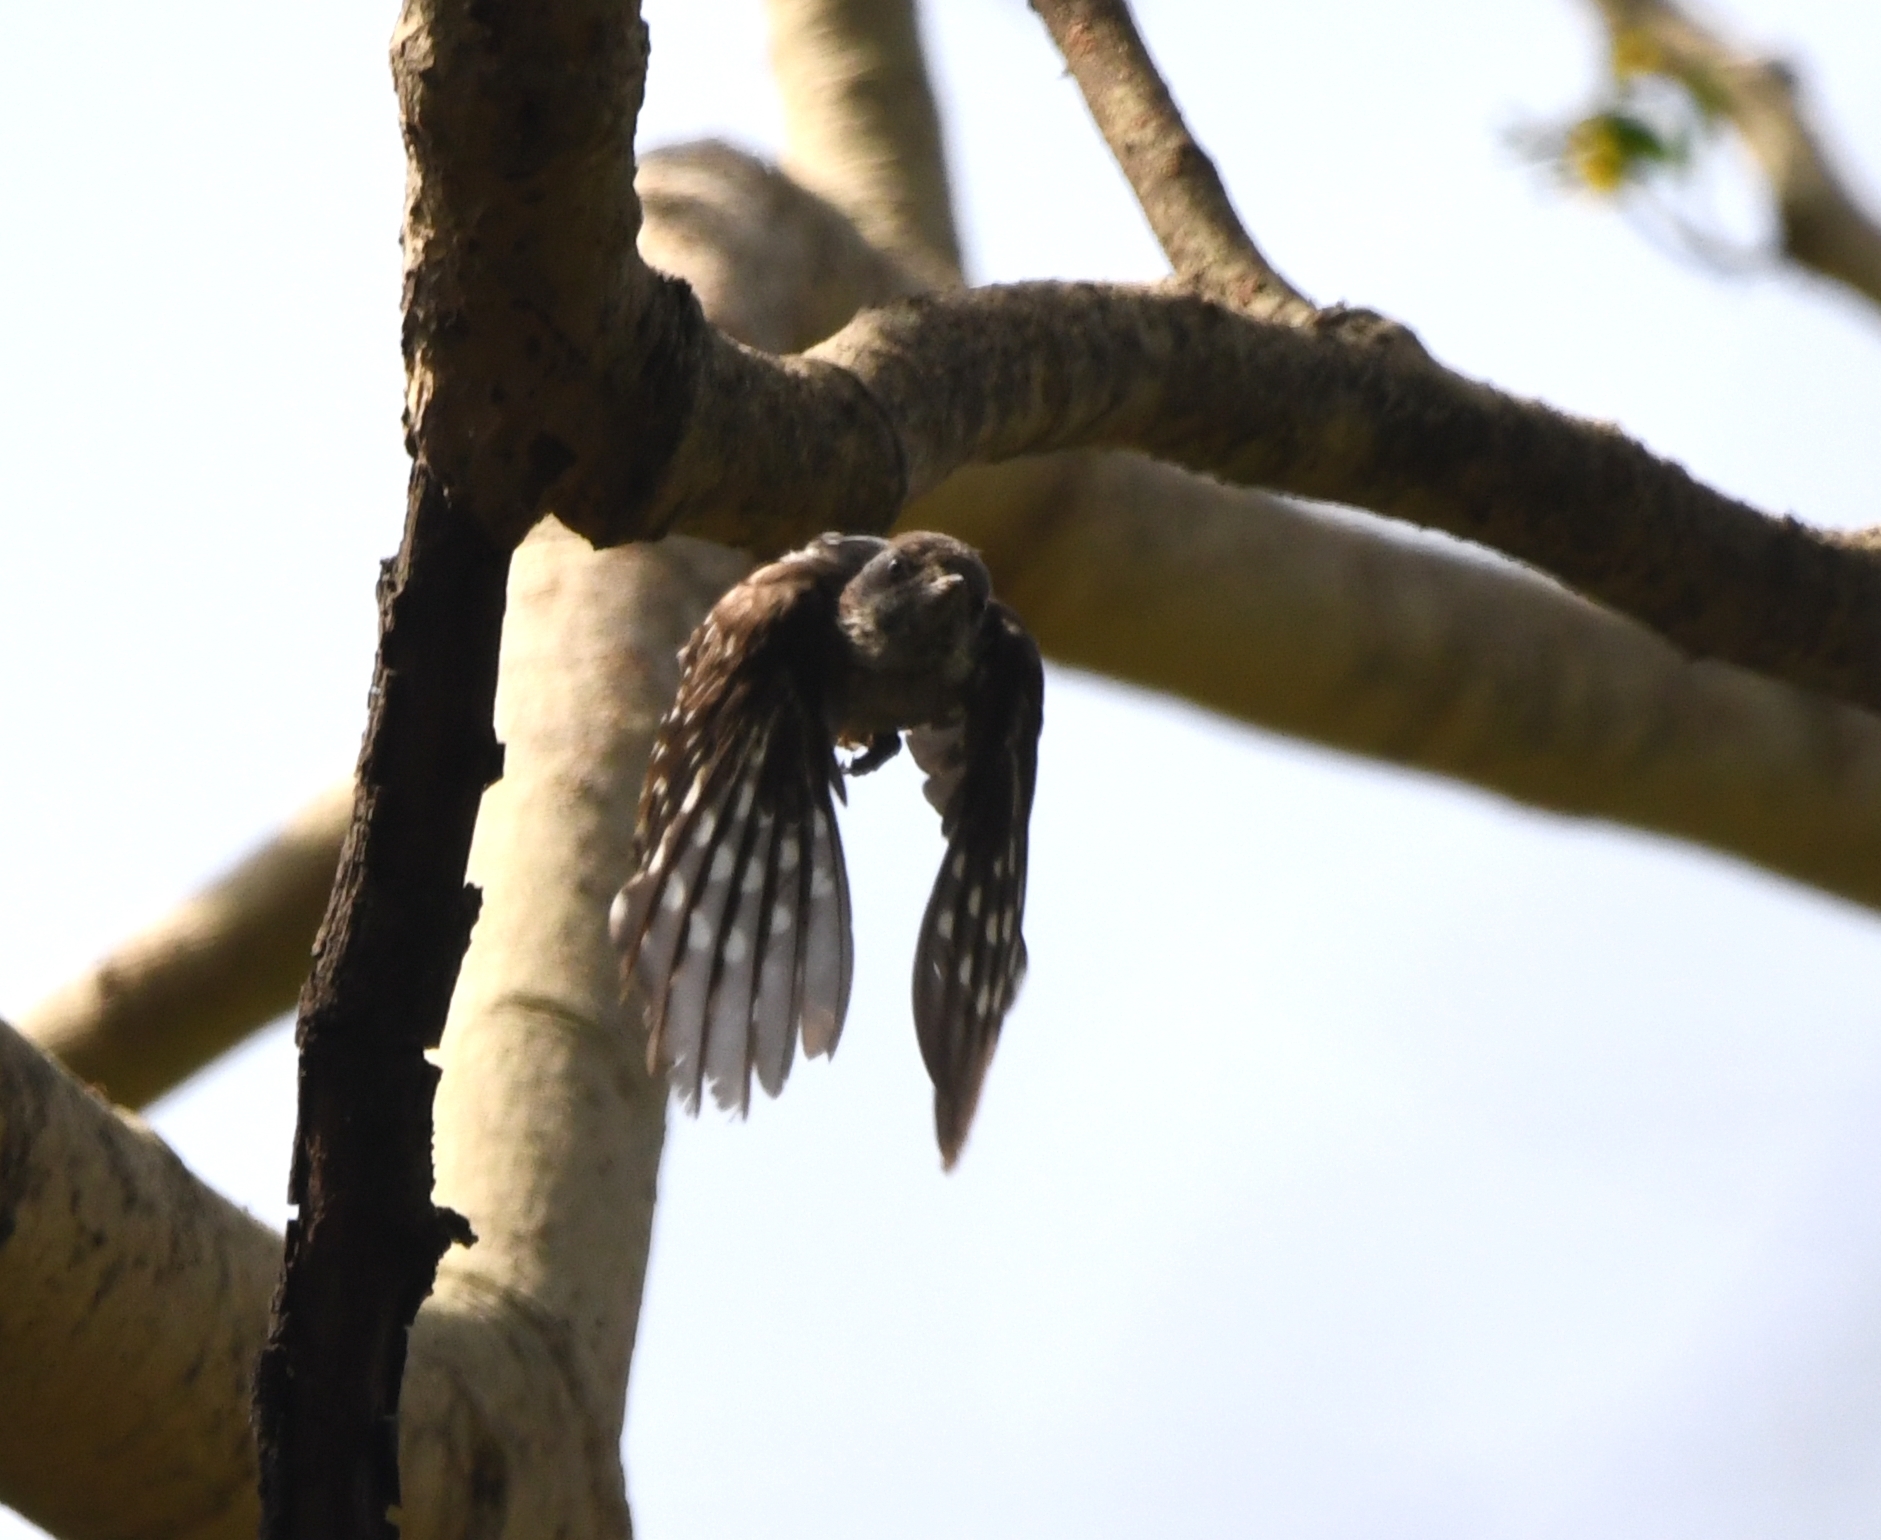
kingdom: Animalia
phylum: Chordata
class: Aves
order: Piciformes
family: Picidae
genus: Yungipicus
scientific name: Yungipicus nanus
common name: Brown-capped pygmy woodpecker
